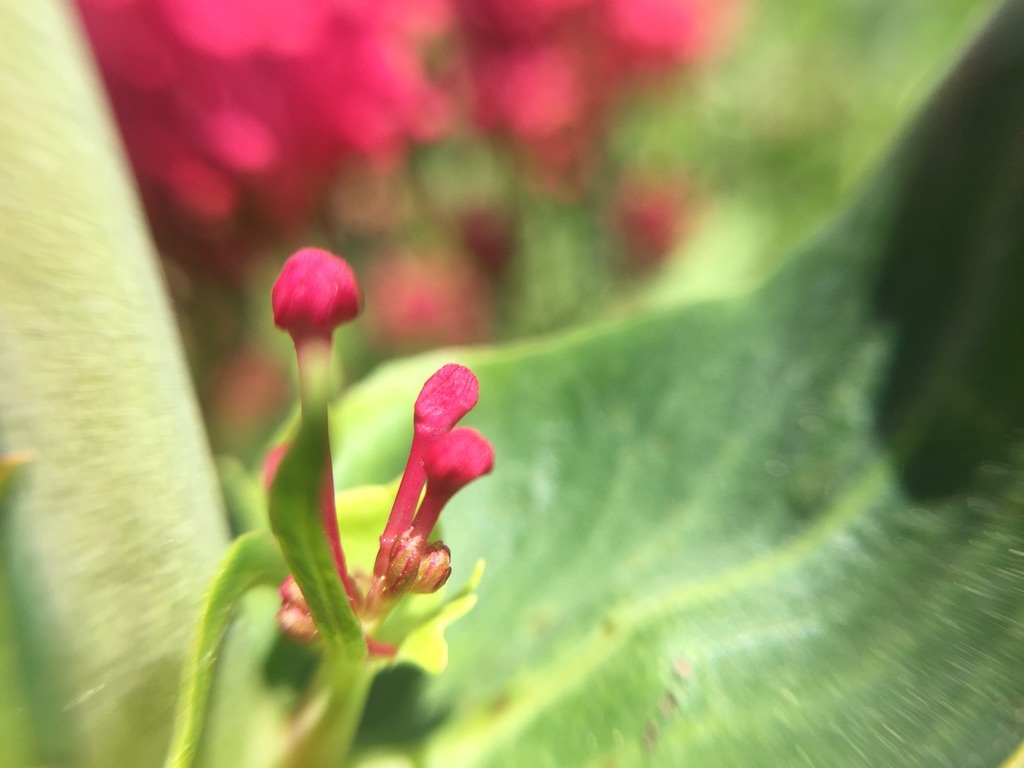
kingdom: Plantae
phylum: Tracheophyta
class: Magnoliopsida
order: Dipsacales
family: Caprifoliaceae
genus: Centranthus
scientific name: Centranthus ruber
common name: Red valerian
